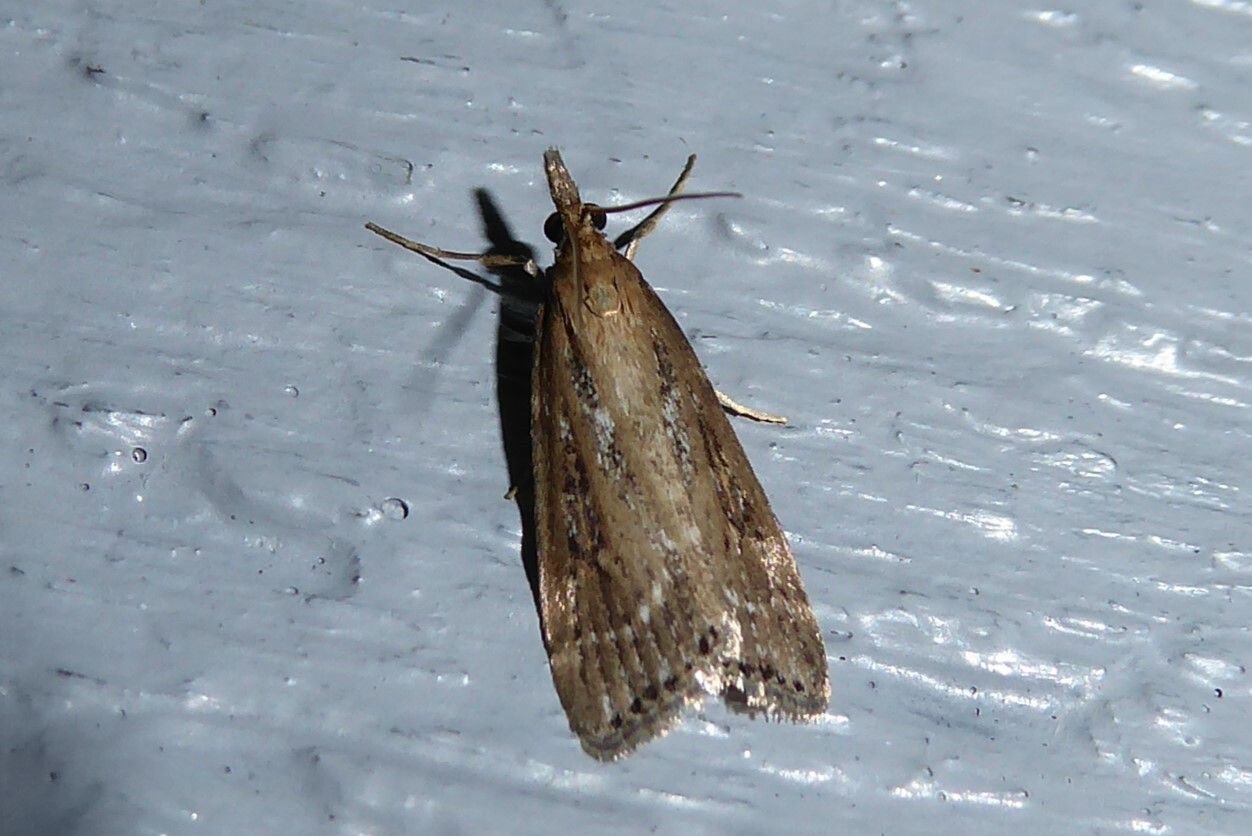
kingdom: Animalia
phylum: Arthropoda
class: Insecta
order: Lepidoptera
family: Crambidae
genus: Eudonia
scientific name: Eudonia octophora
